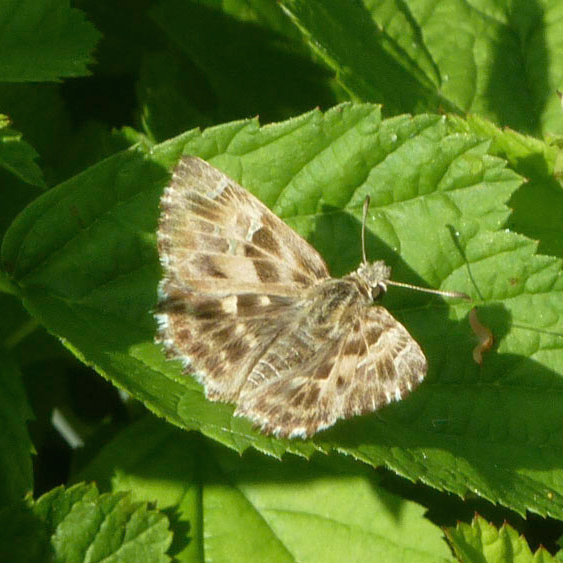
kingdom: Animalia
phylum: Arthropoda
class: Insecta
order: Lepidoptera
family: Hesperiidae
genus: Carcharodus
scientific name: Carcharodus alceae
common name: Mallow skipper
